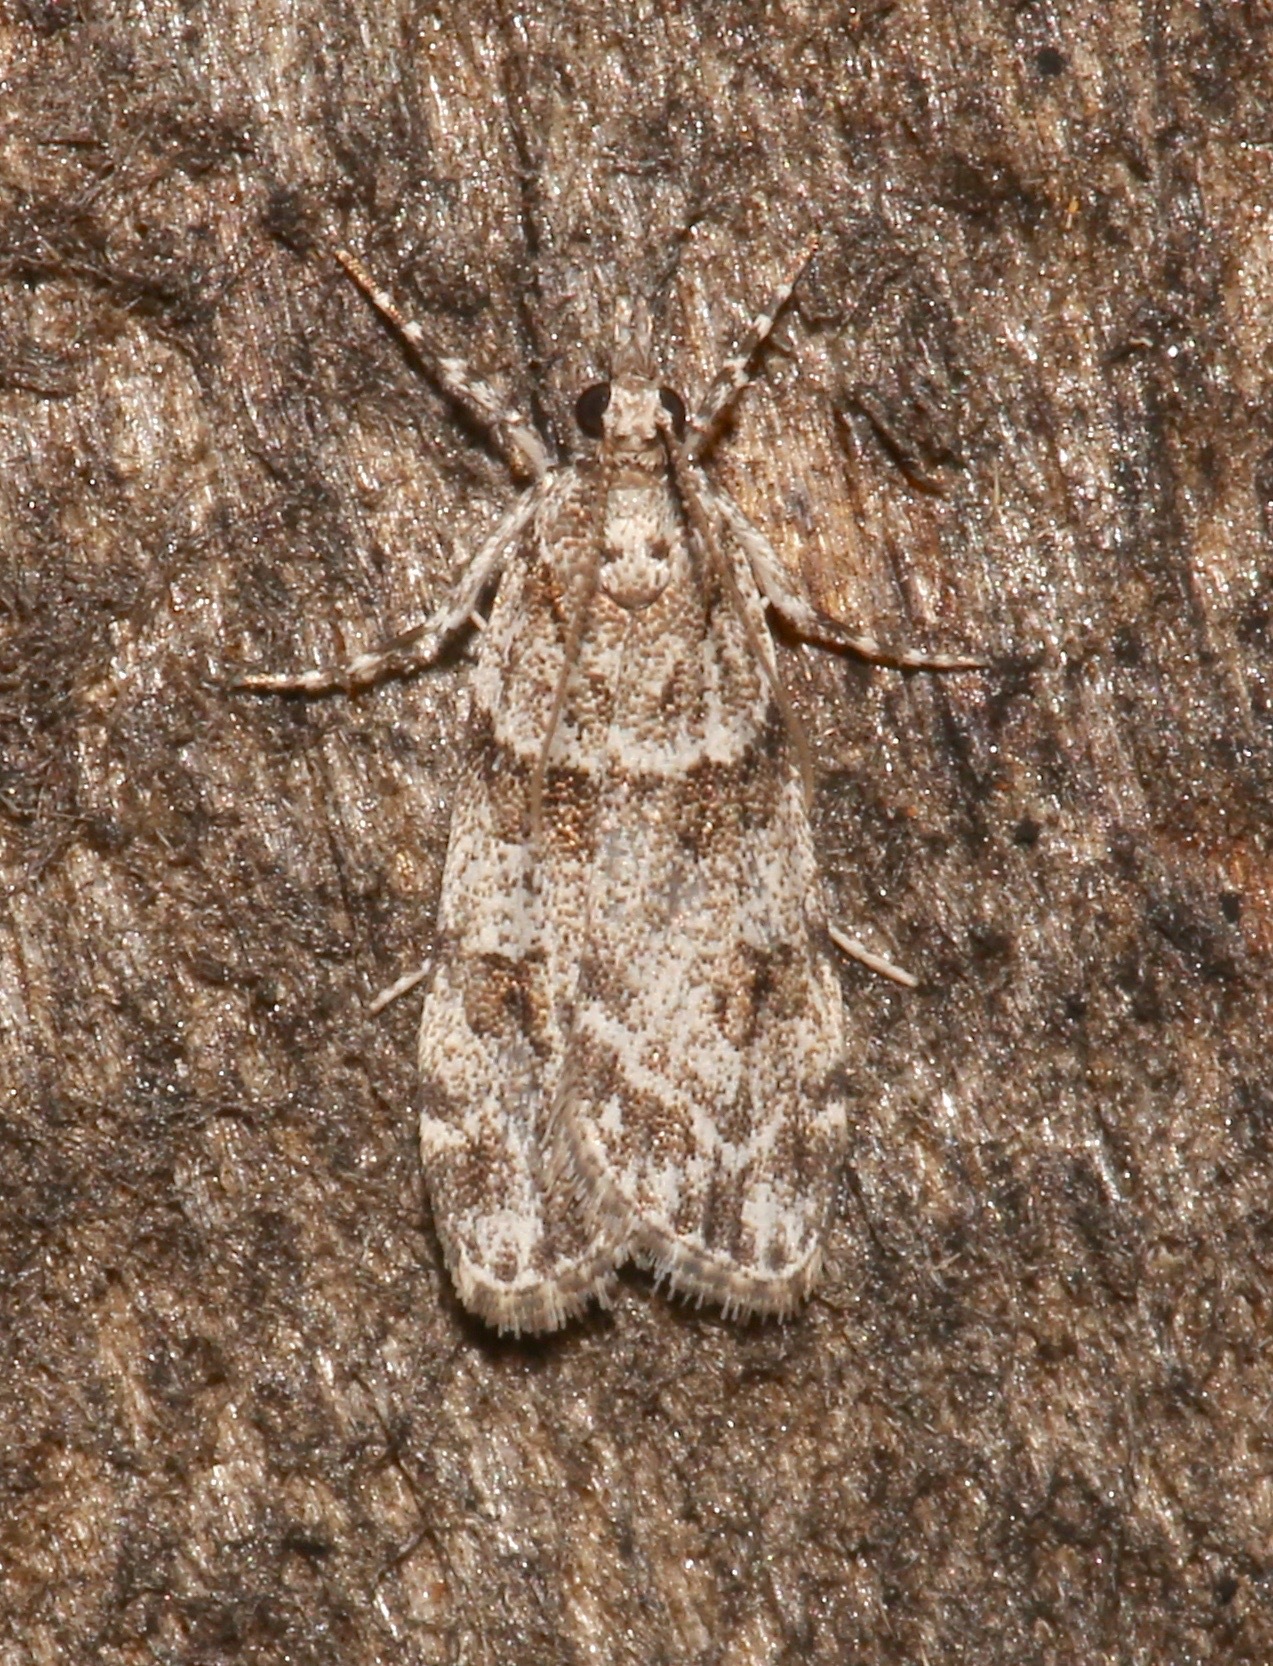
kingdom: Animalia
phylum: Arthropoda
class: Insecta
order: Lepidoptera
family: Crambidae
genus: Scoparia
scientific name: Scoparia biplagialis
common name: Double-striped scoparia moth
